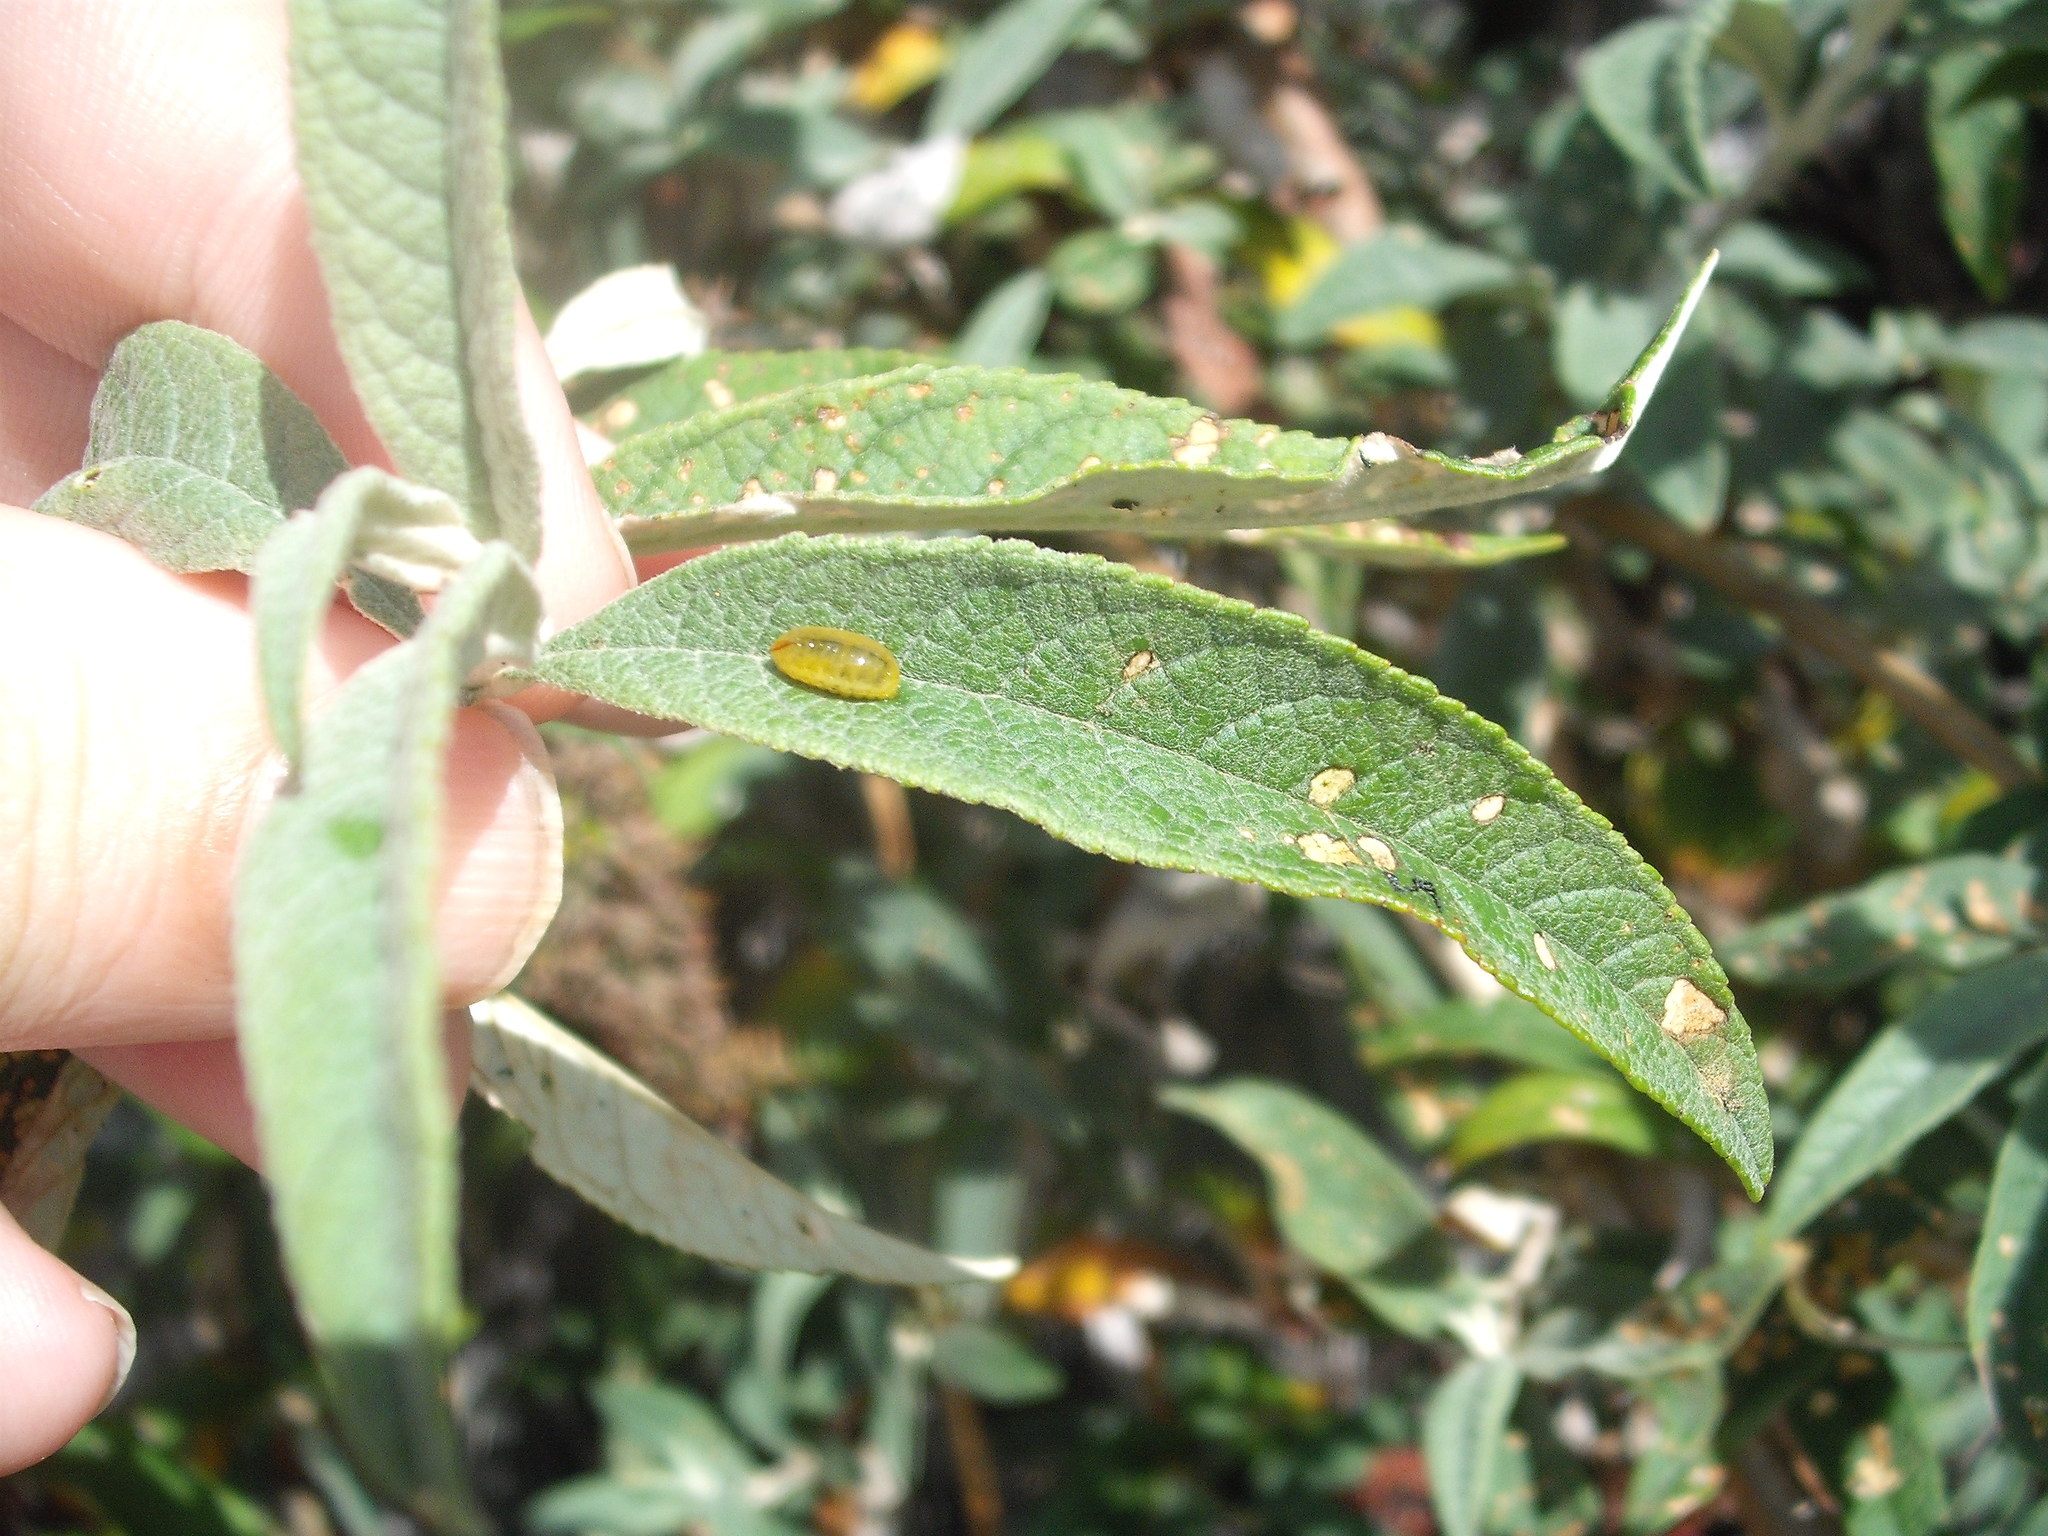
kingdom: Animalia
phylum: Arthropoda
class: Insecta
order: Coleoptera
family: Curculionidae
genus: Cleopus
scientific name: Cleopus japonicus
